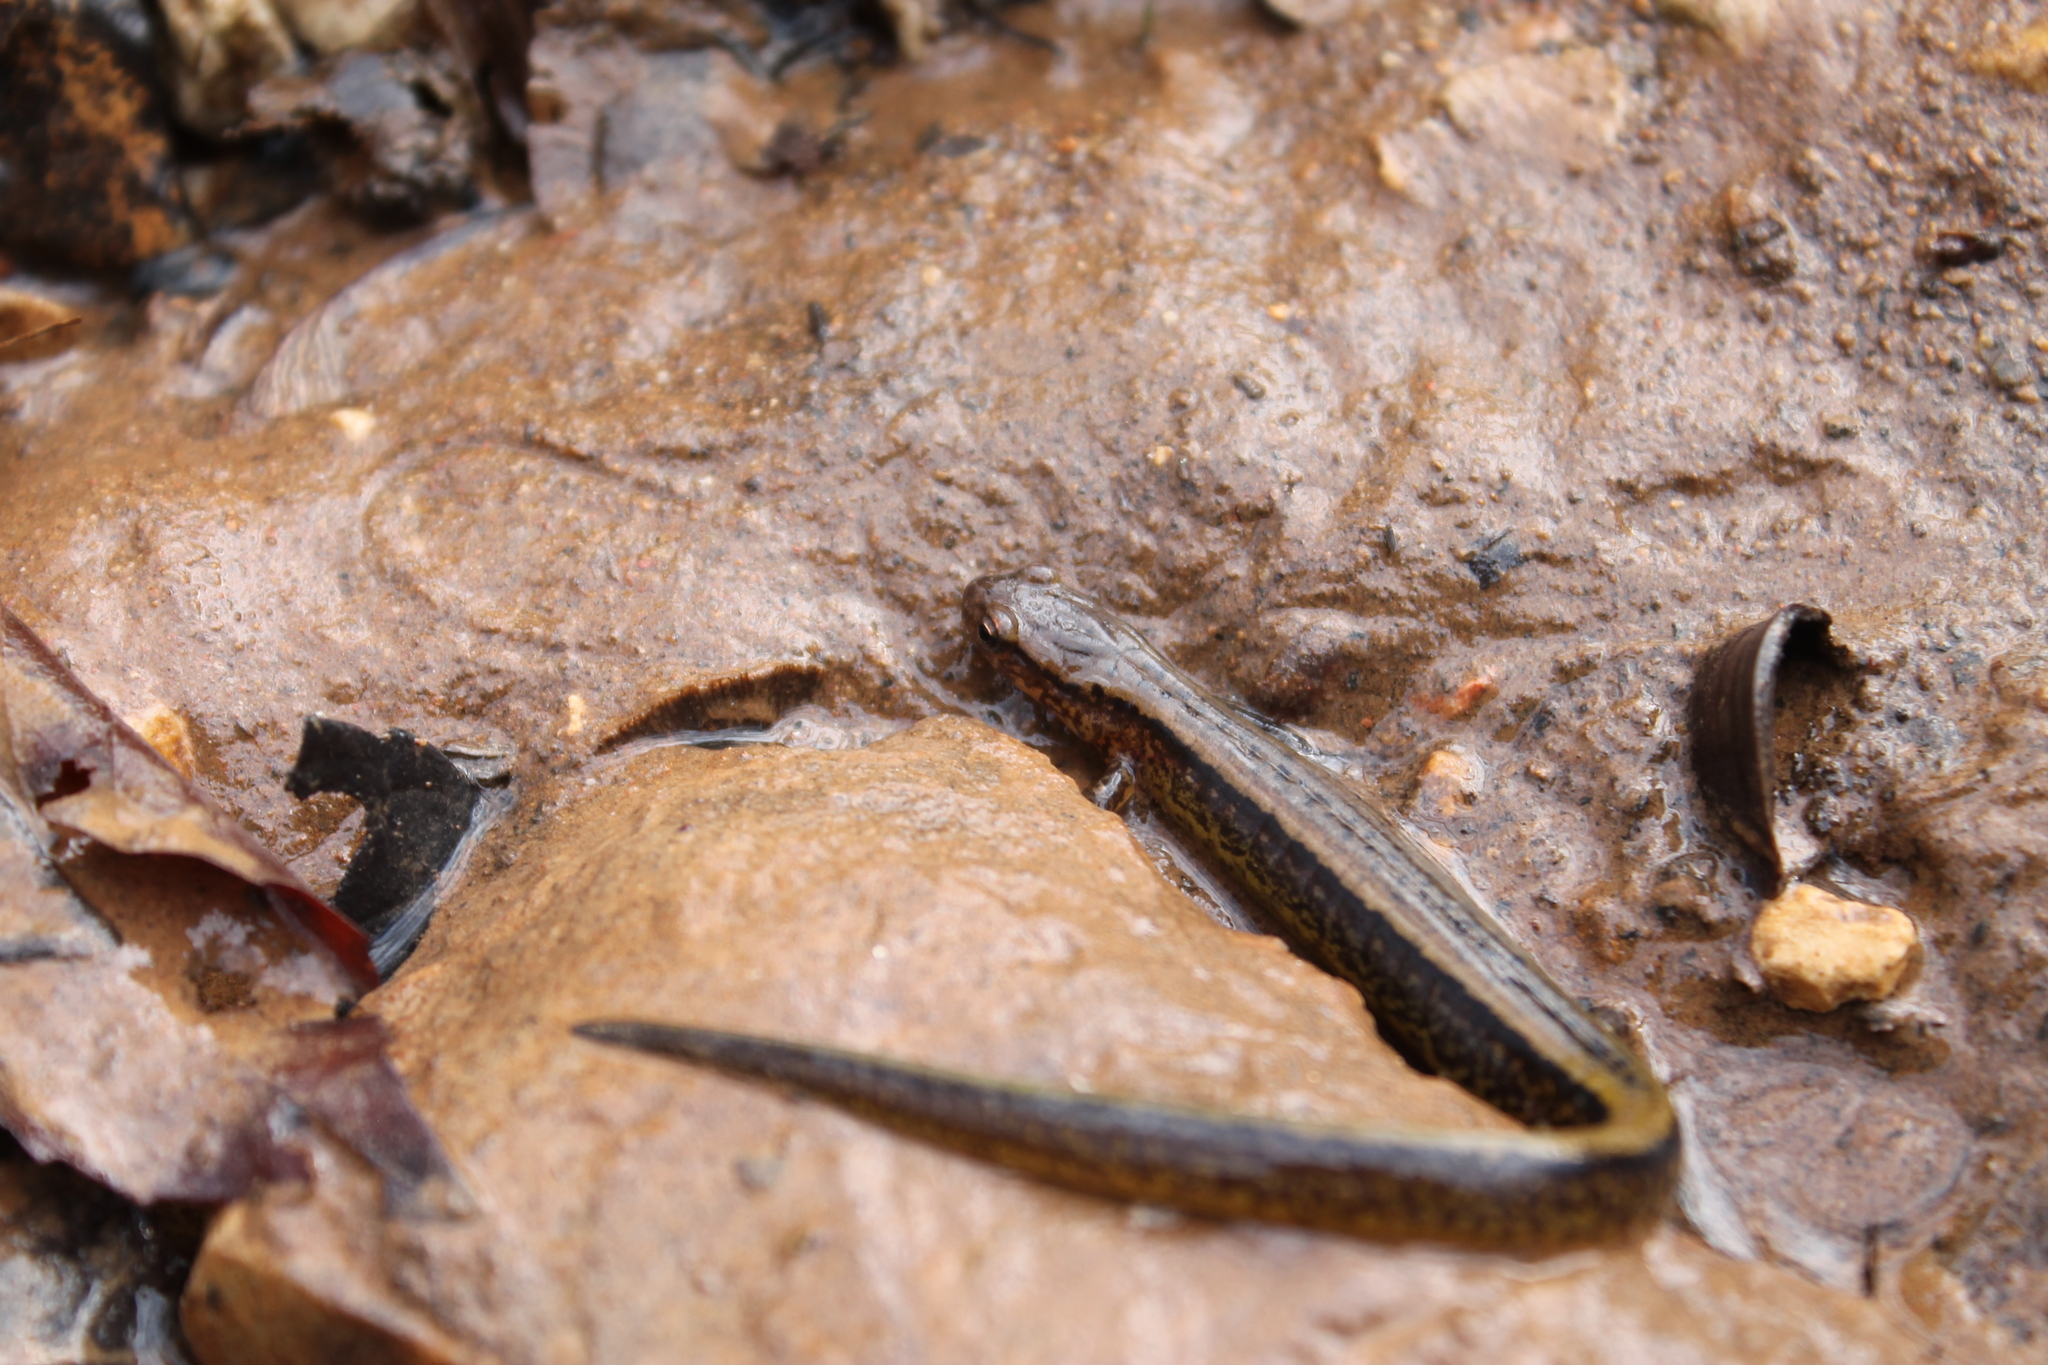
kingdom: Animalia
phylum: Chordata
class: Amphibia
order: Caudata
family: Plethodontidae
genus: Eurycea
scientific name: Eurycea cirrigera
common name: Southern two-lined salamander
